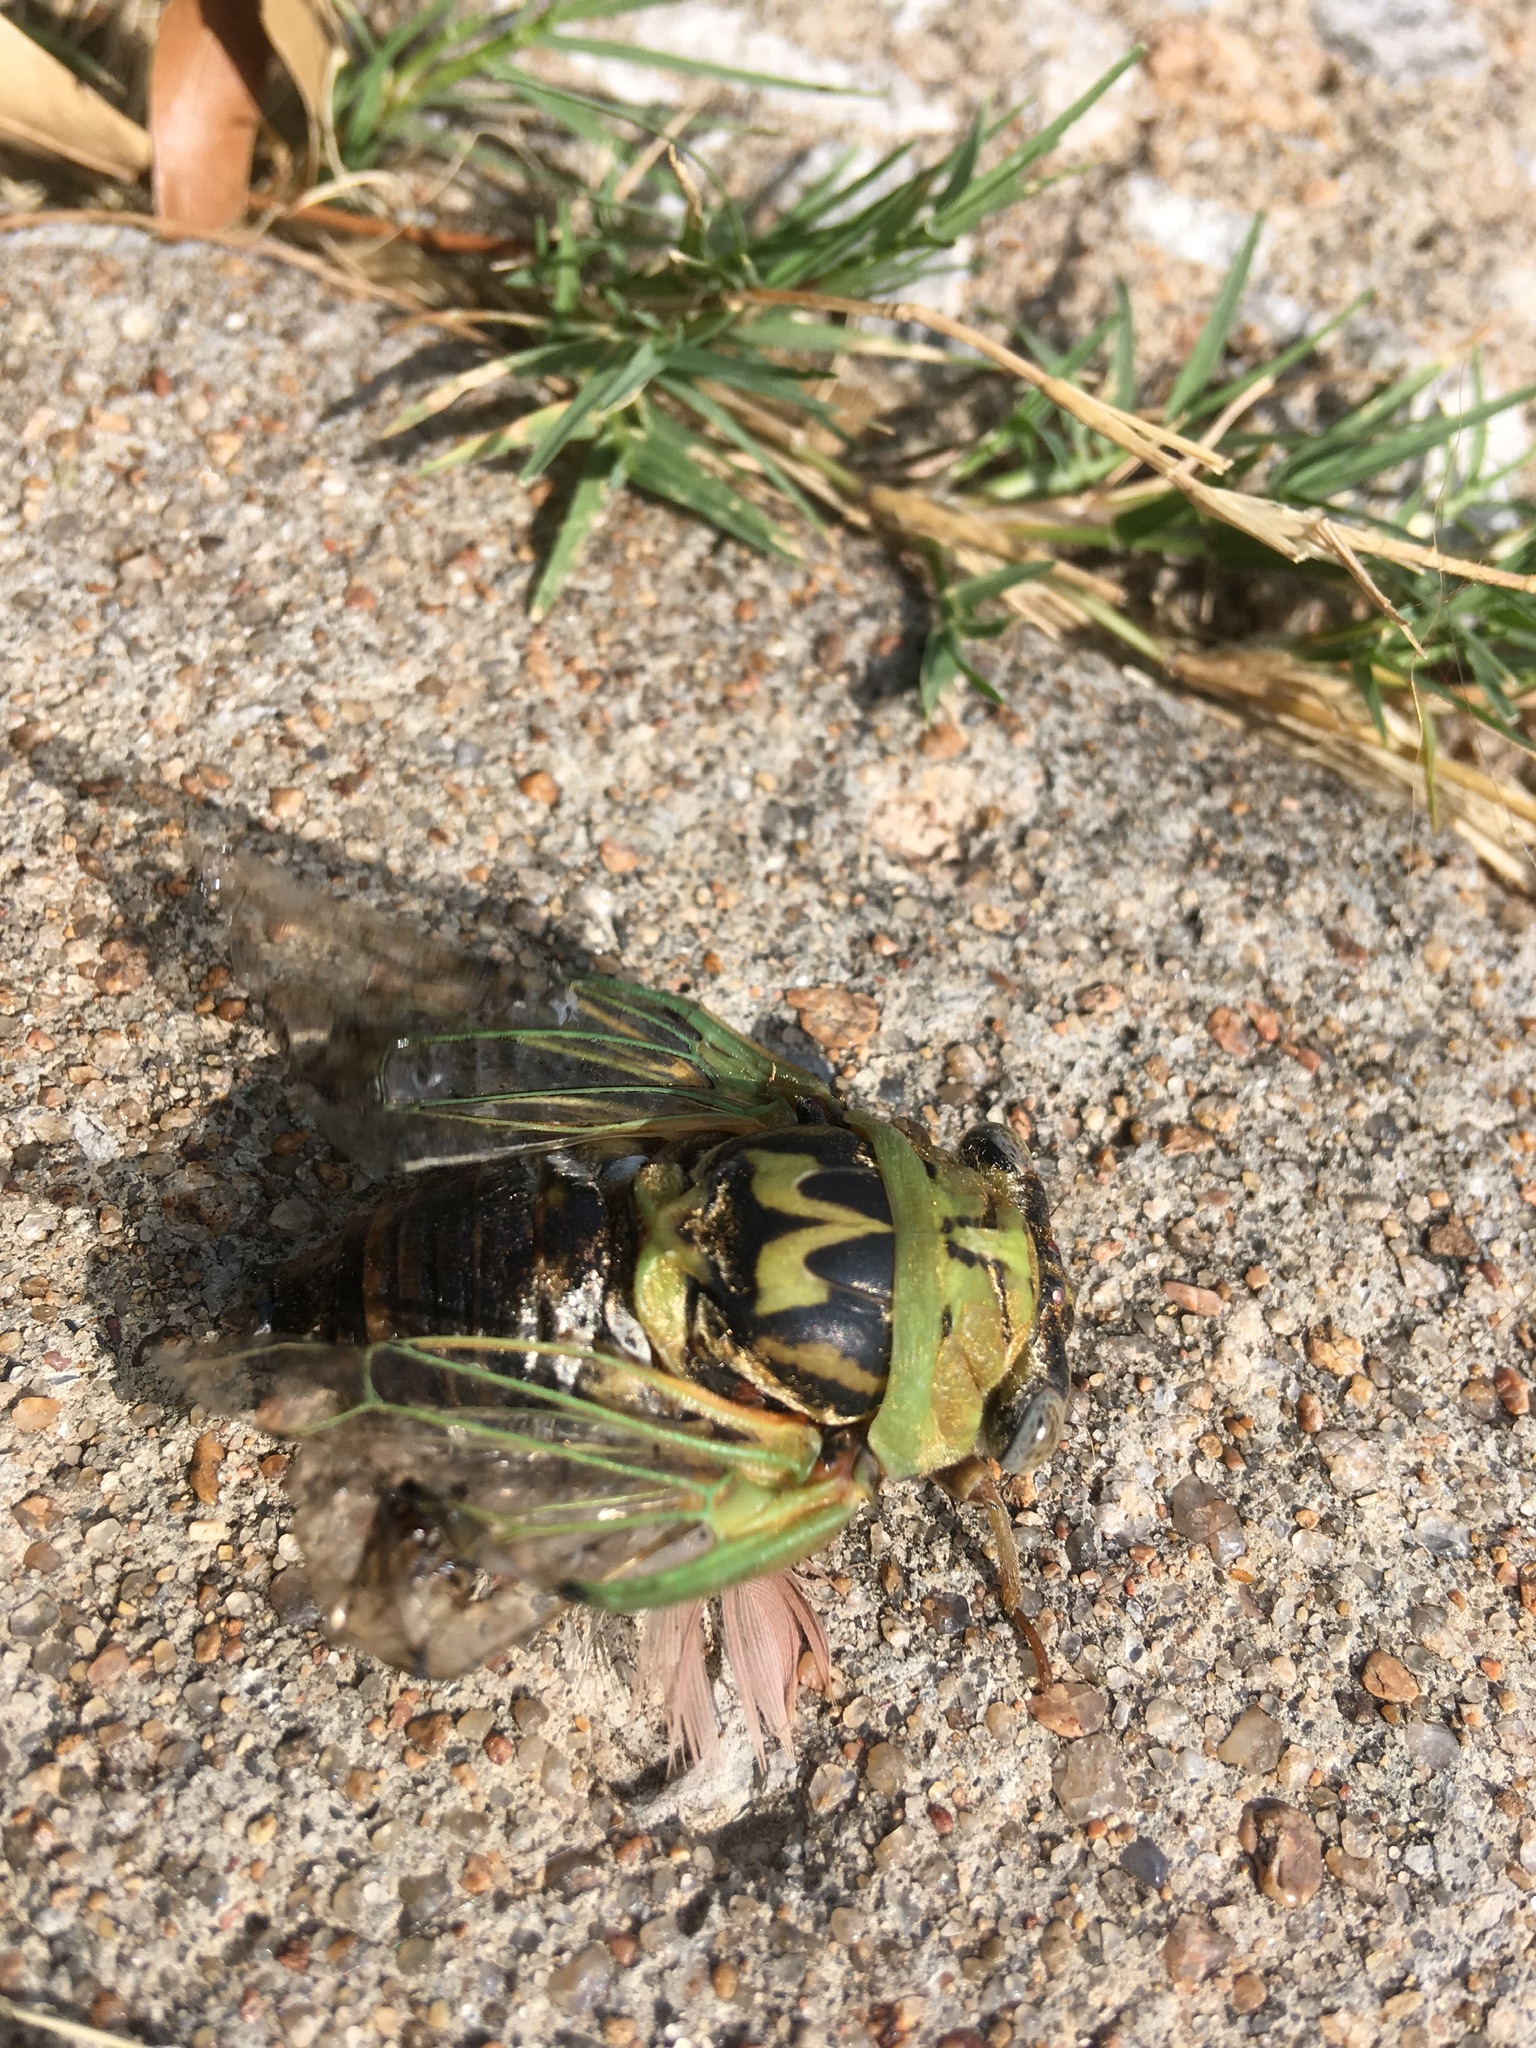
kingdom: Animalia
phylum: Arthropoda
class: Insecta
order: Hemiptera
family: Cicadidae
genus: Megatibicen
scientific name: Megatibicen resh
